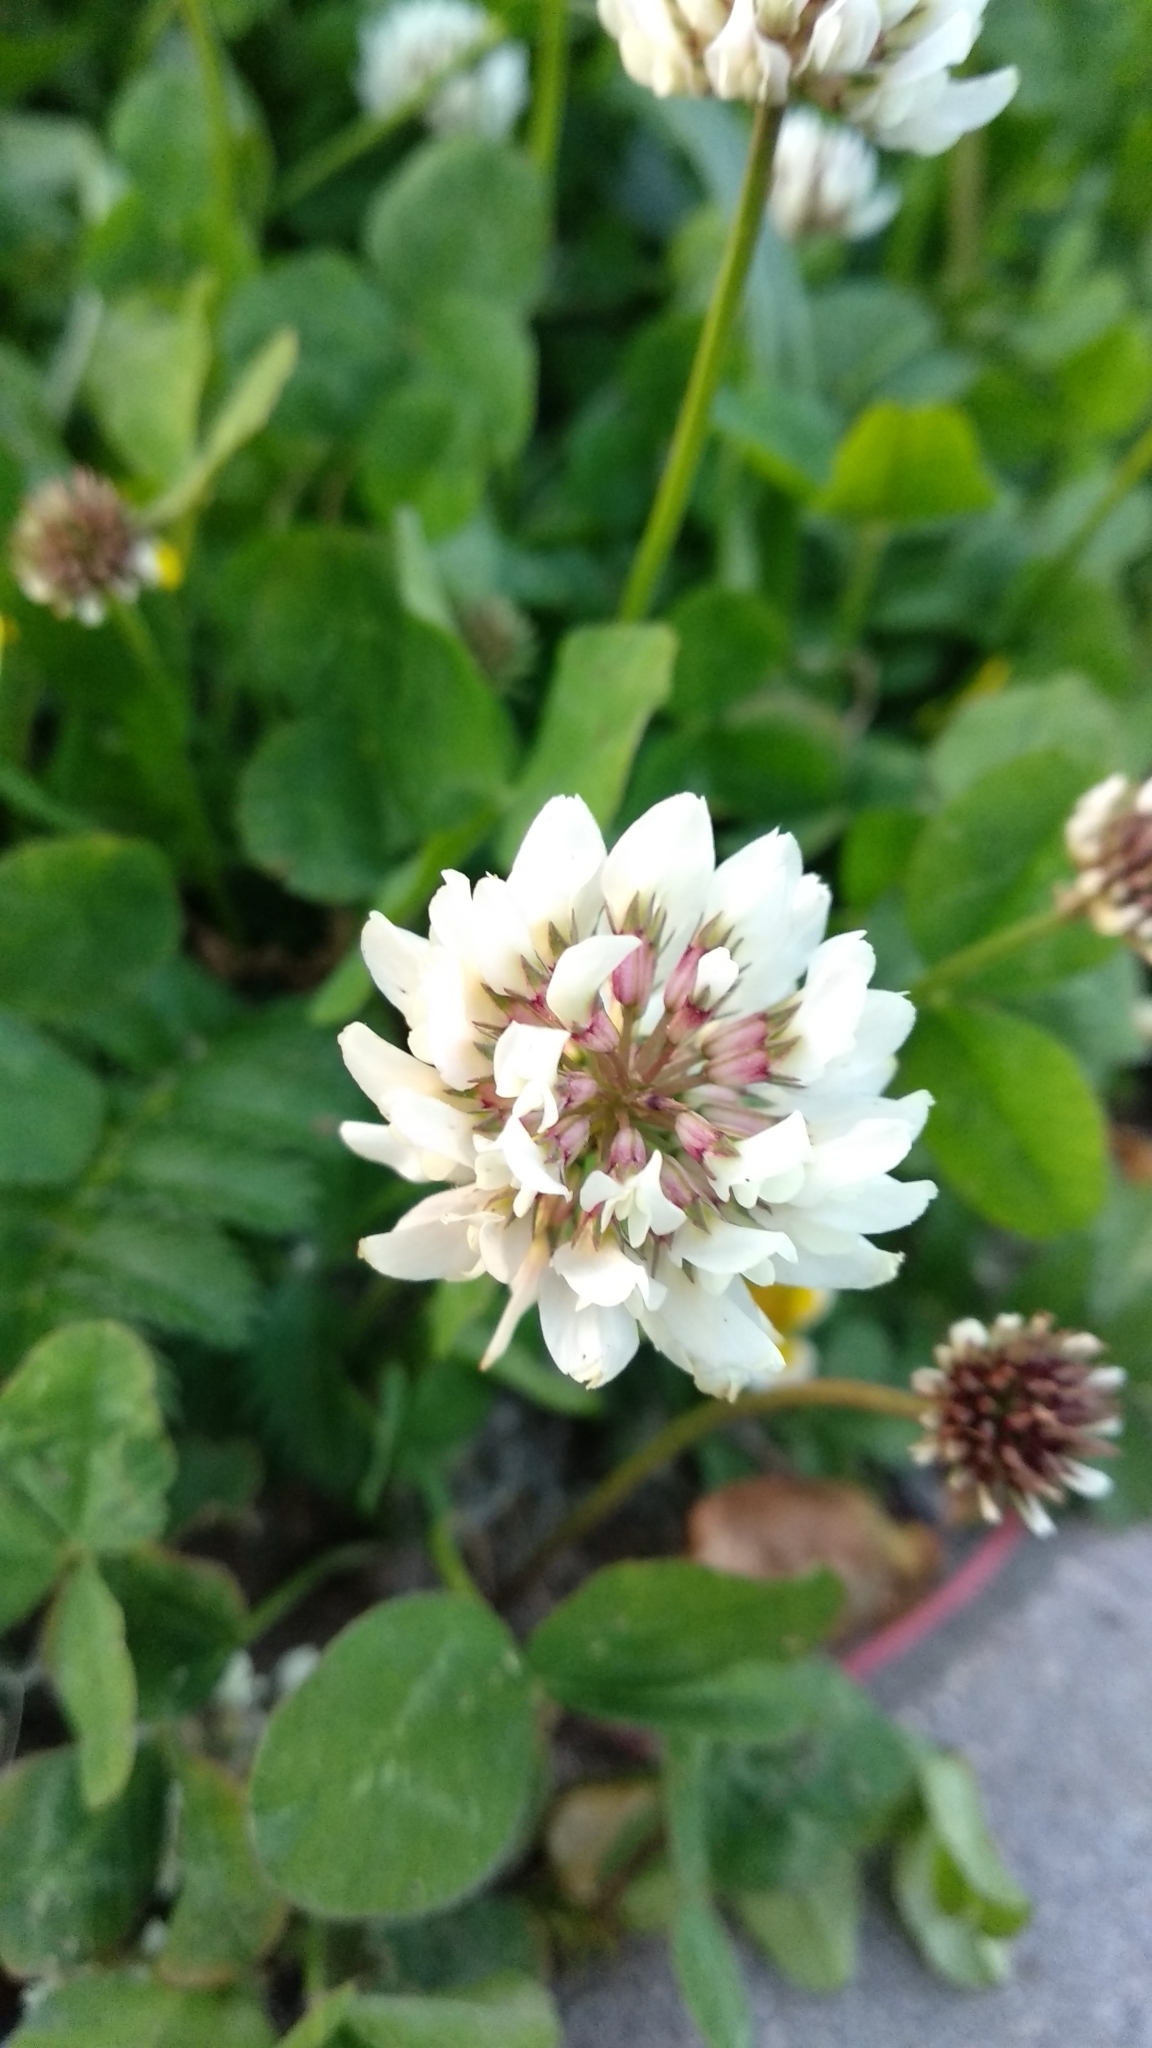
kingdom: Plantae
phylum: Tracheophyta
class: Magnoliopsida
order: Fabales
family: Fabaceae
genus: Trifolium
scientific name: Trifolium repens
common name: White clover
